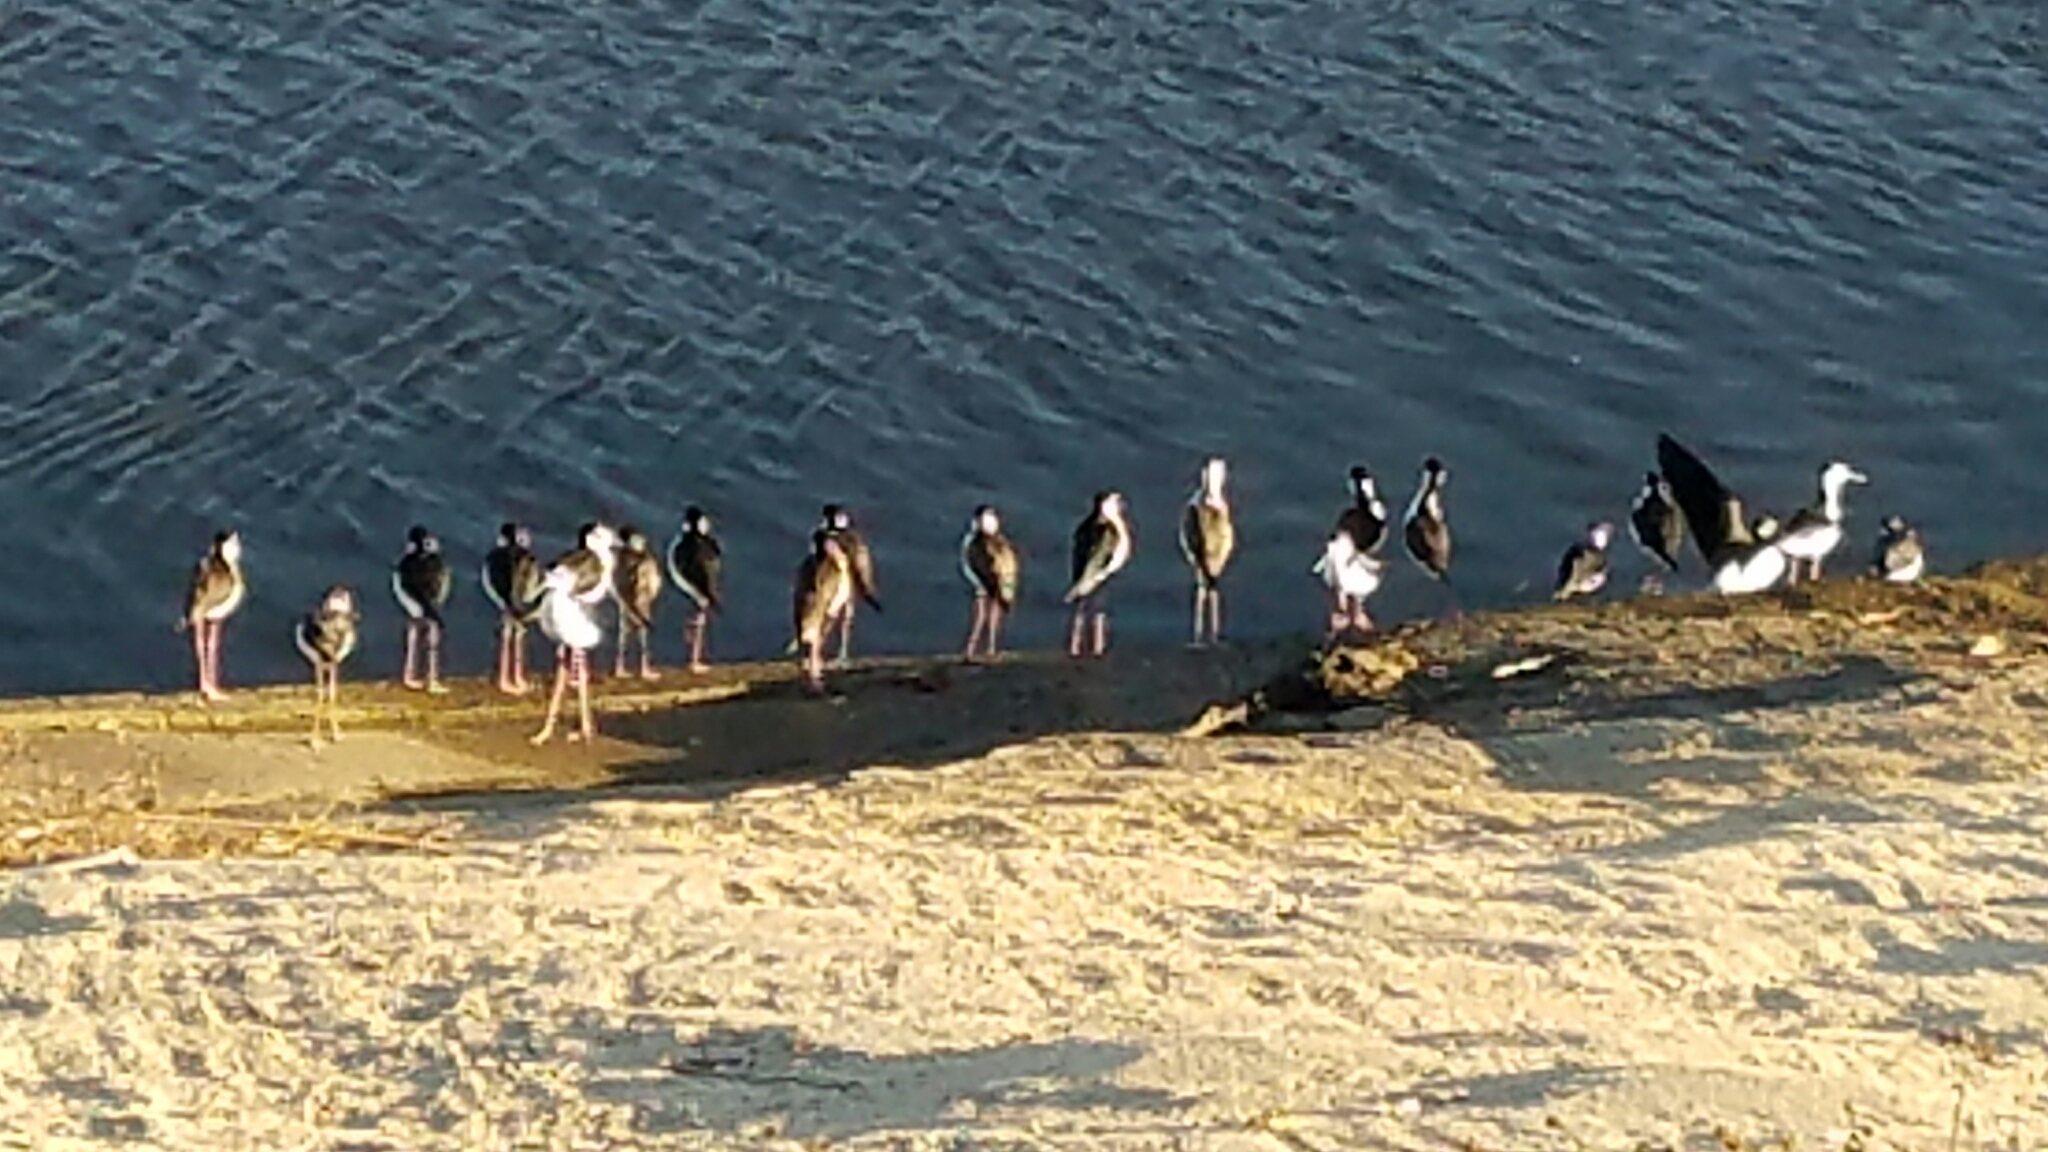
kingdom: Animalia
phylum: Chordata
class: Aves
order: Charadriiformes
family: Recurvirostridae
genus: Himantopus
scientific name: Himantopus mexicanus
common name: Black-necked stilt
